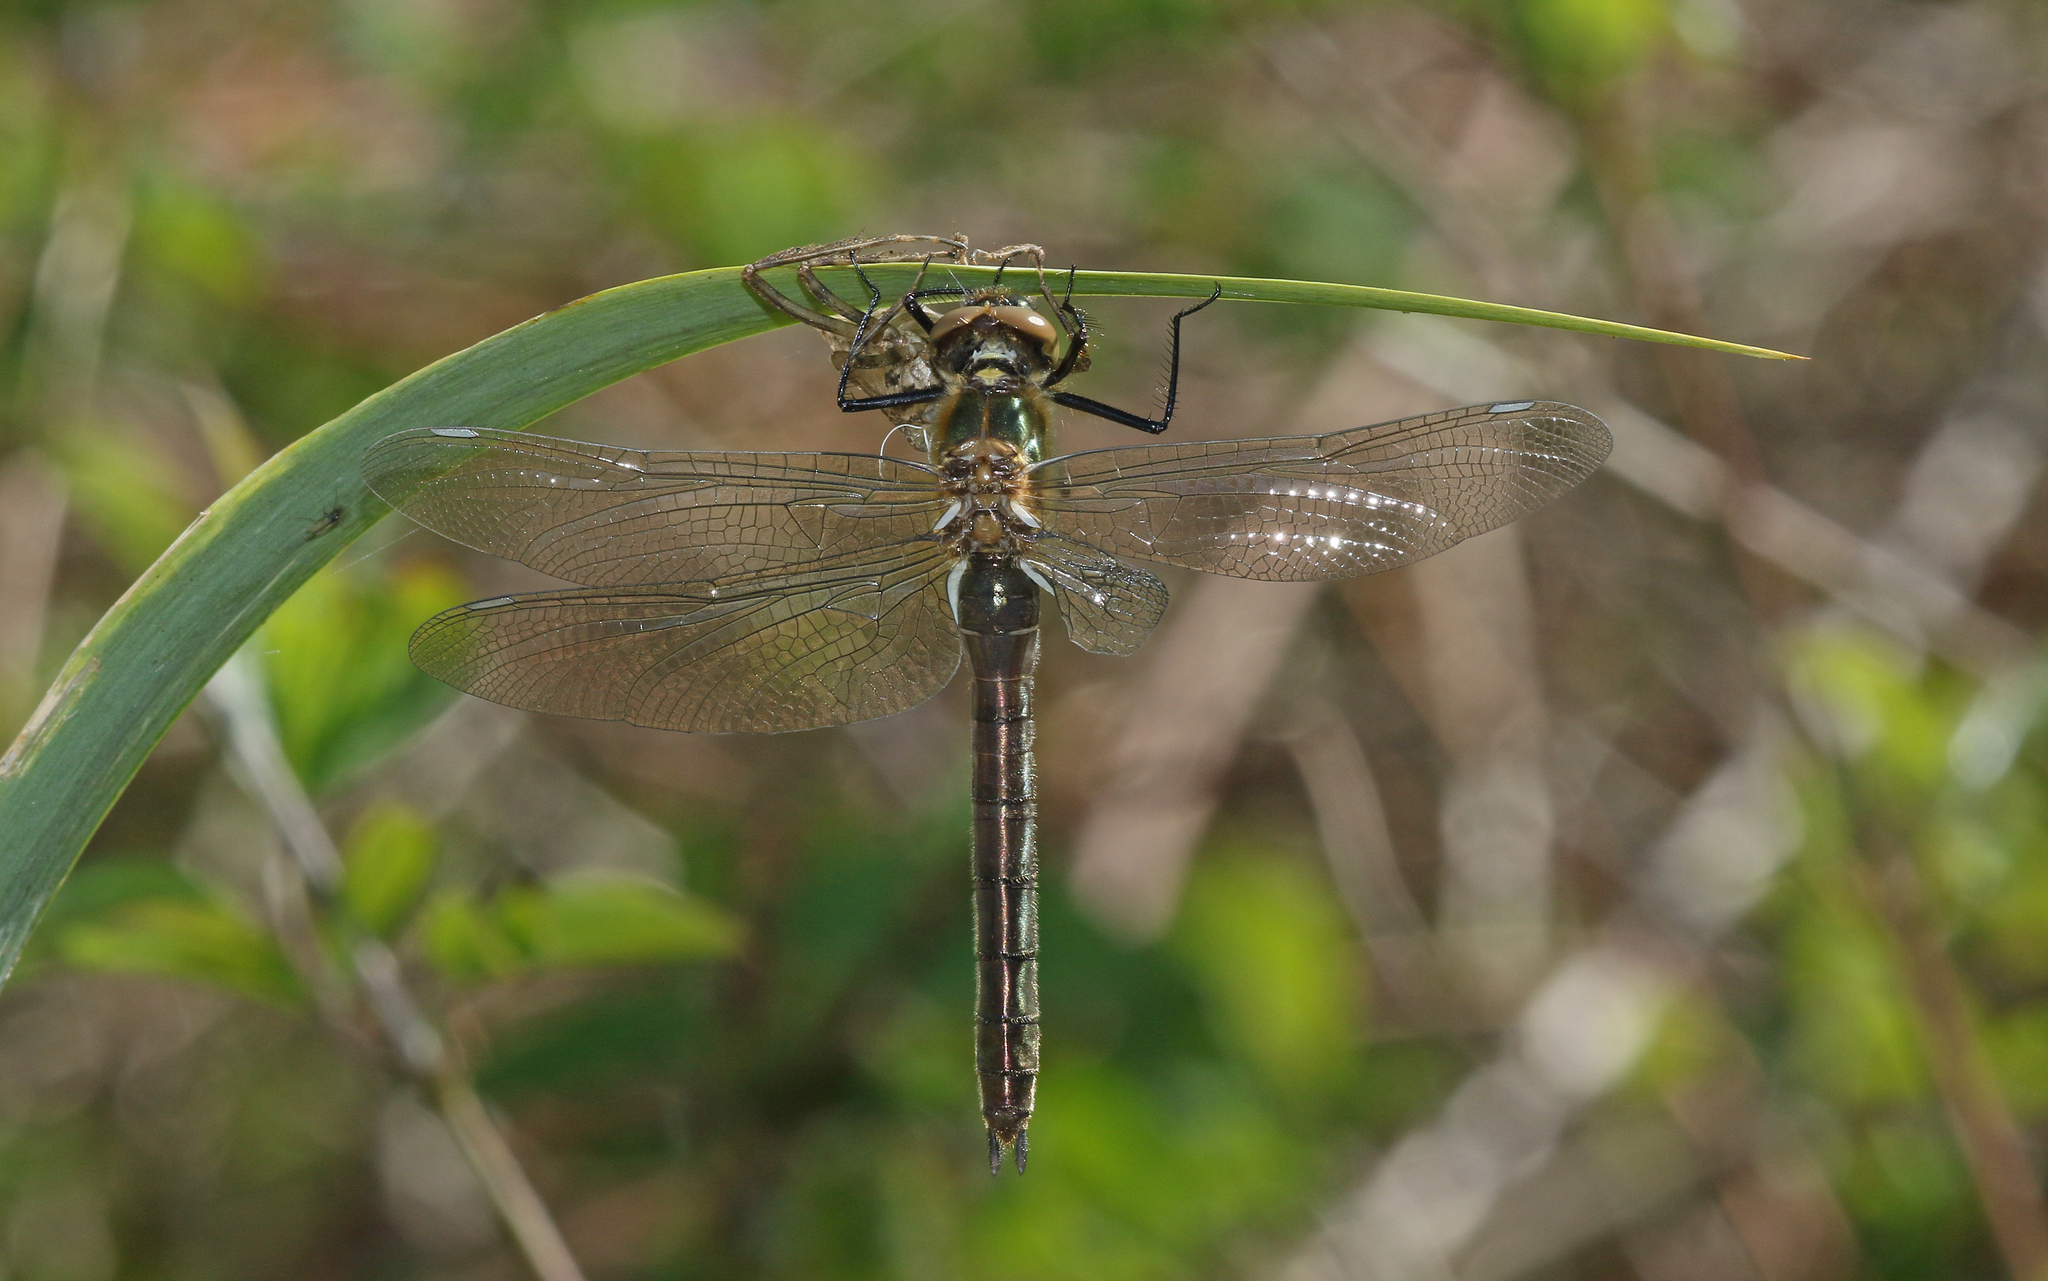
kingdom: Animalia
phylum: Arthropoda
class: Insecta
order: Odonata
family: Corduliidae
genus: Cordulia
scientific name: Cordulia aenea
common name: Downy emerald
